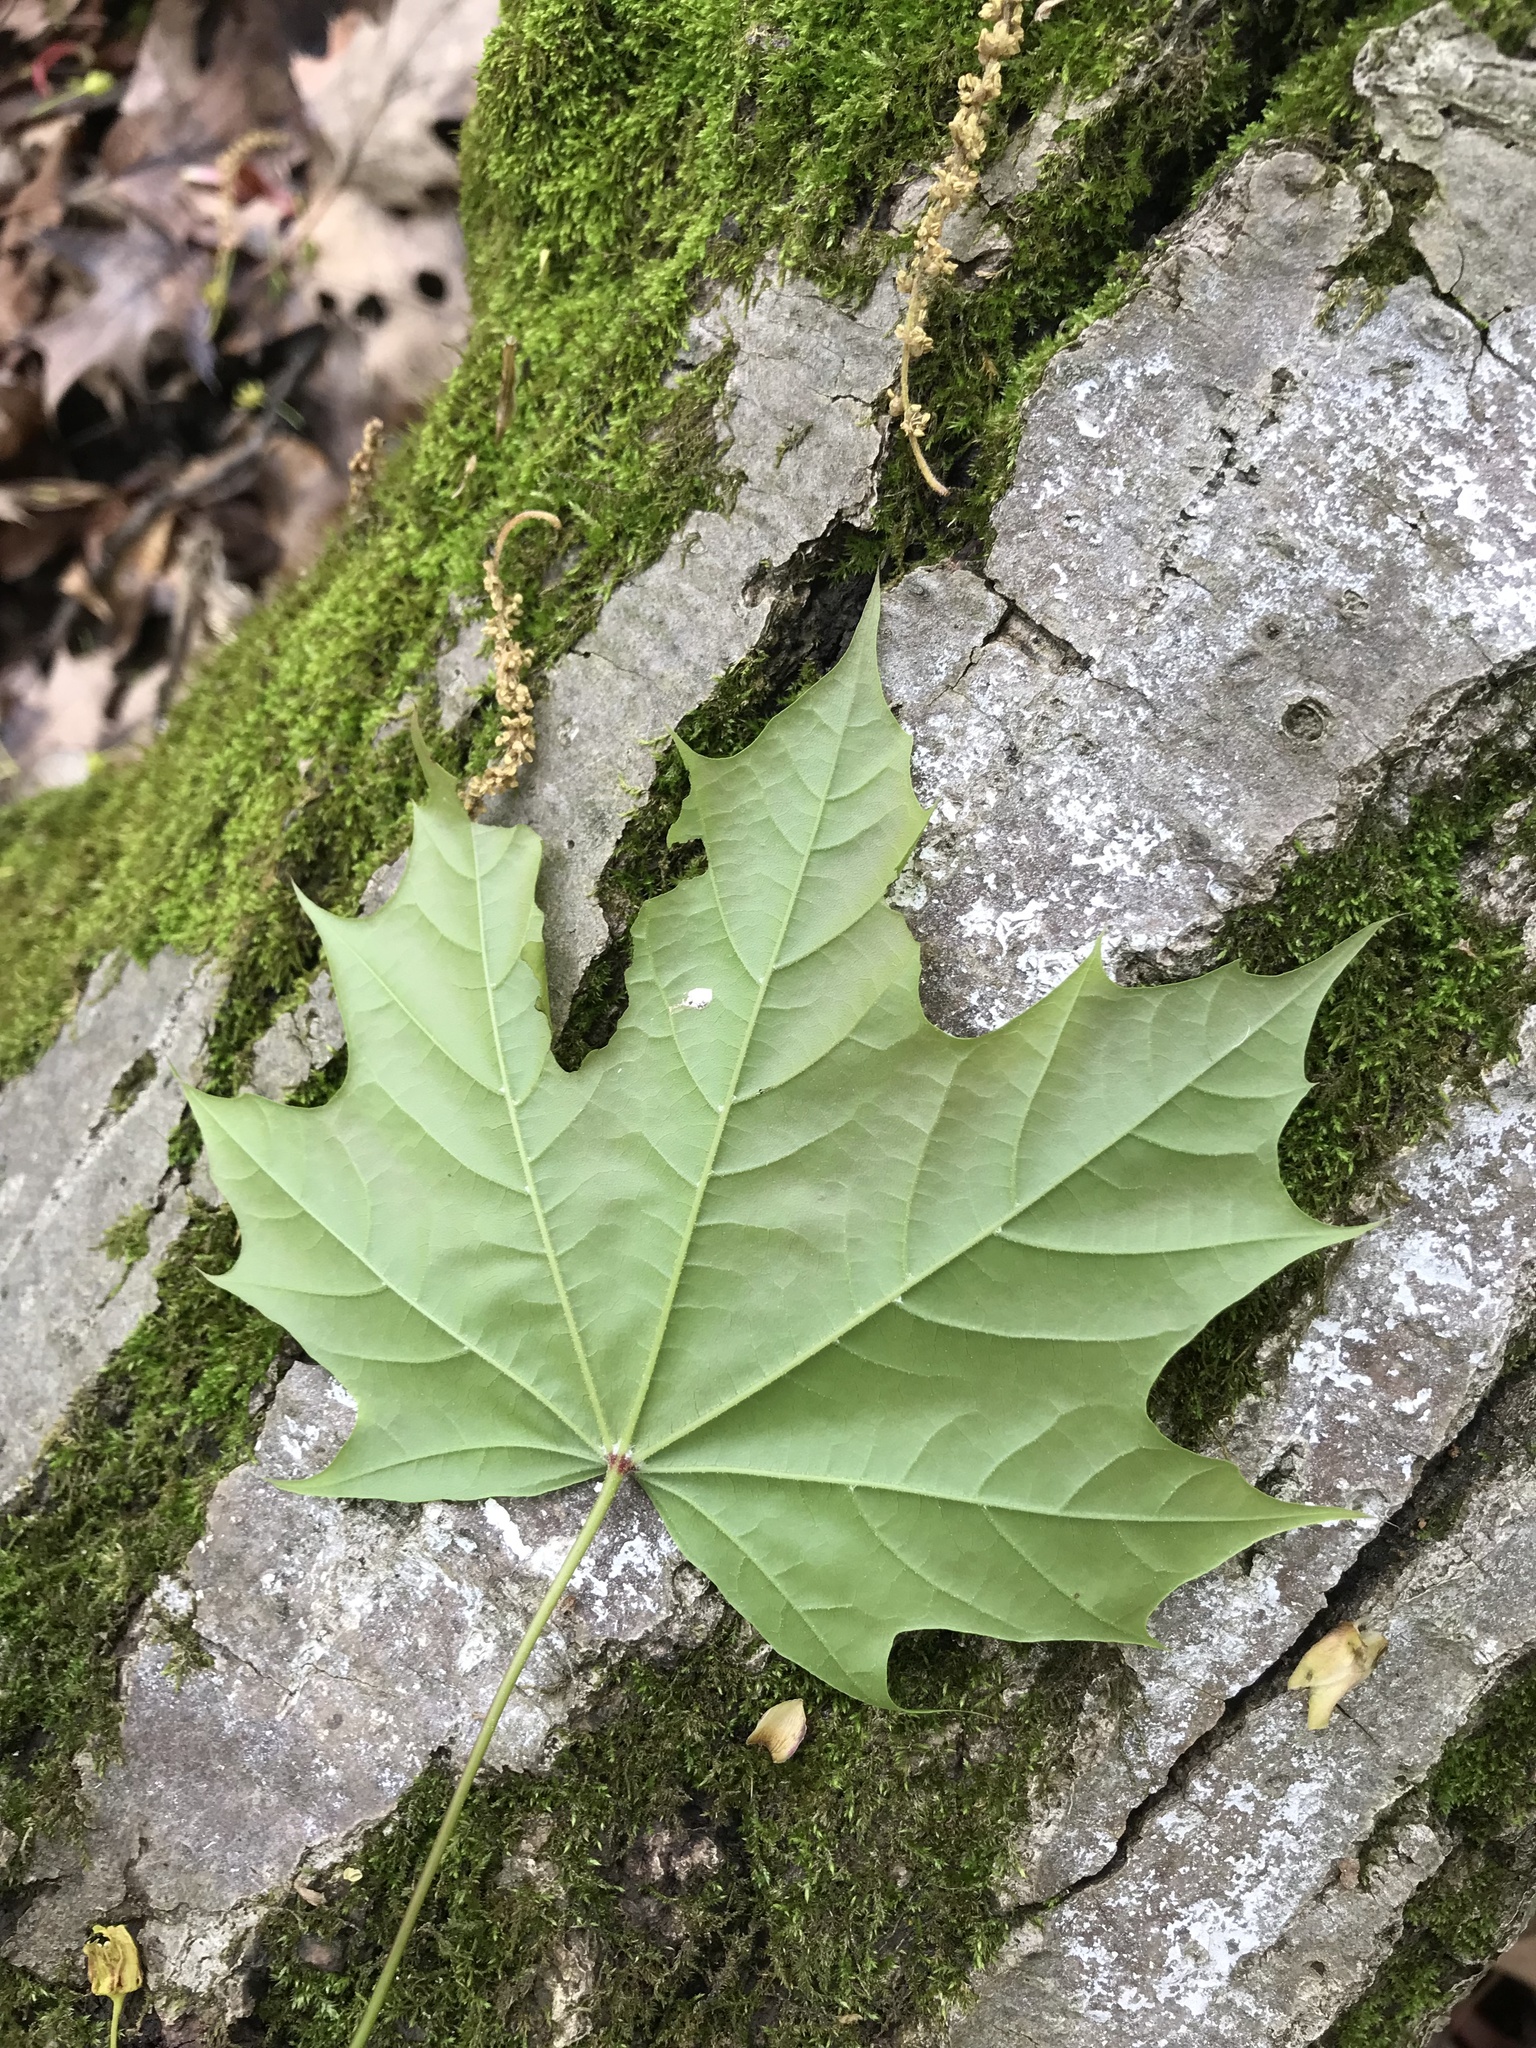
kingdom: Plantae
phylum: Tracheophyta
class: Magnoliopsida
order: Sapindales
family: Sapindaceae
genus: Acer
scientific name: Acer platanoides
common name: Norway maple
